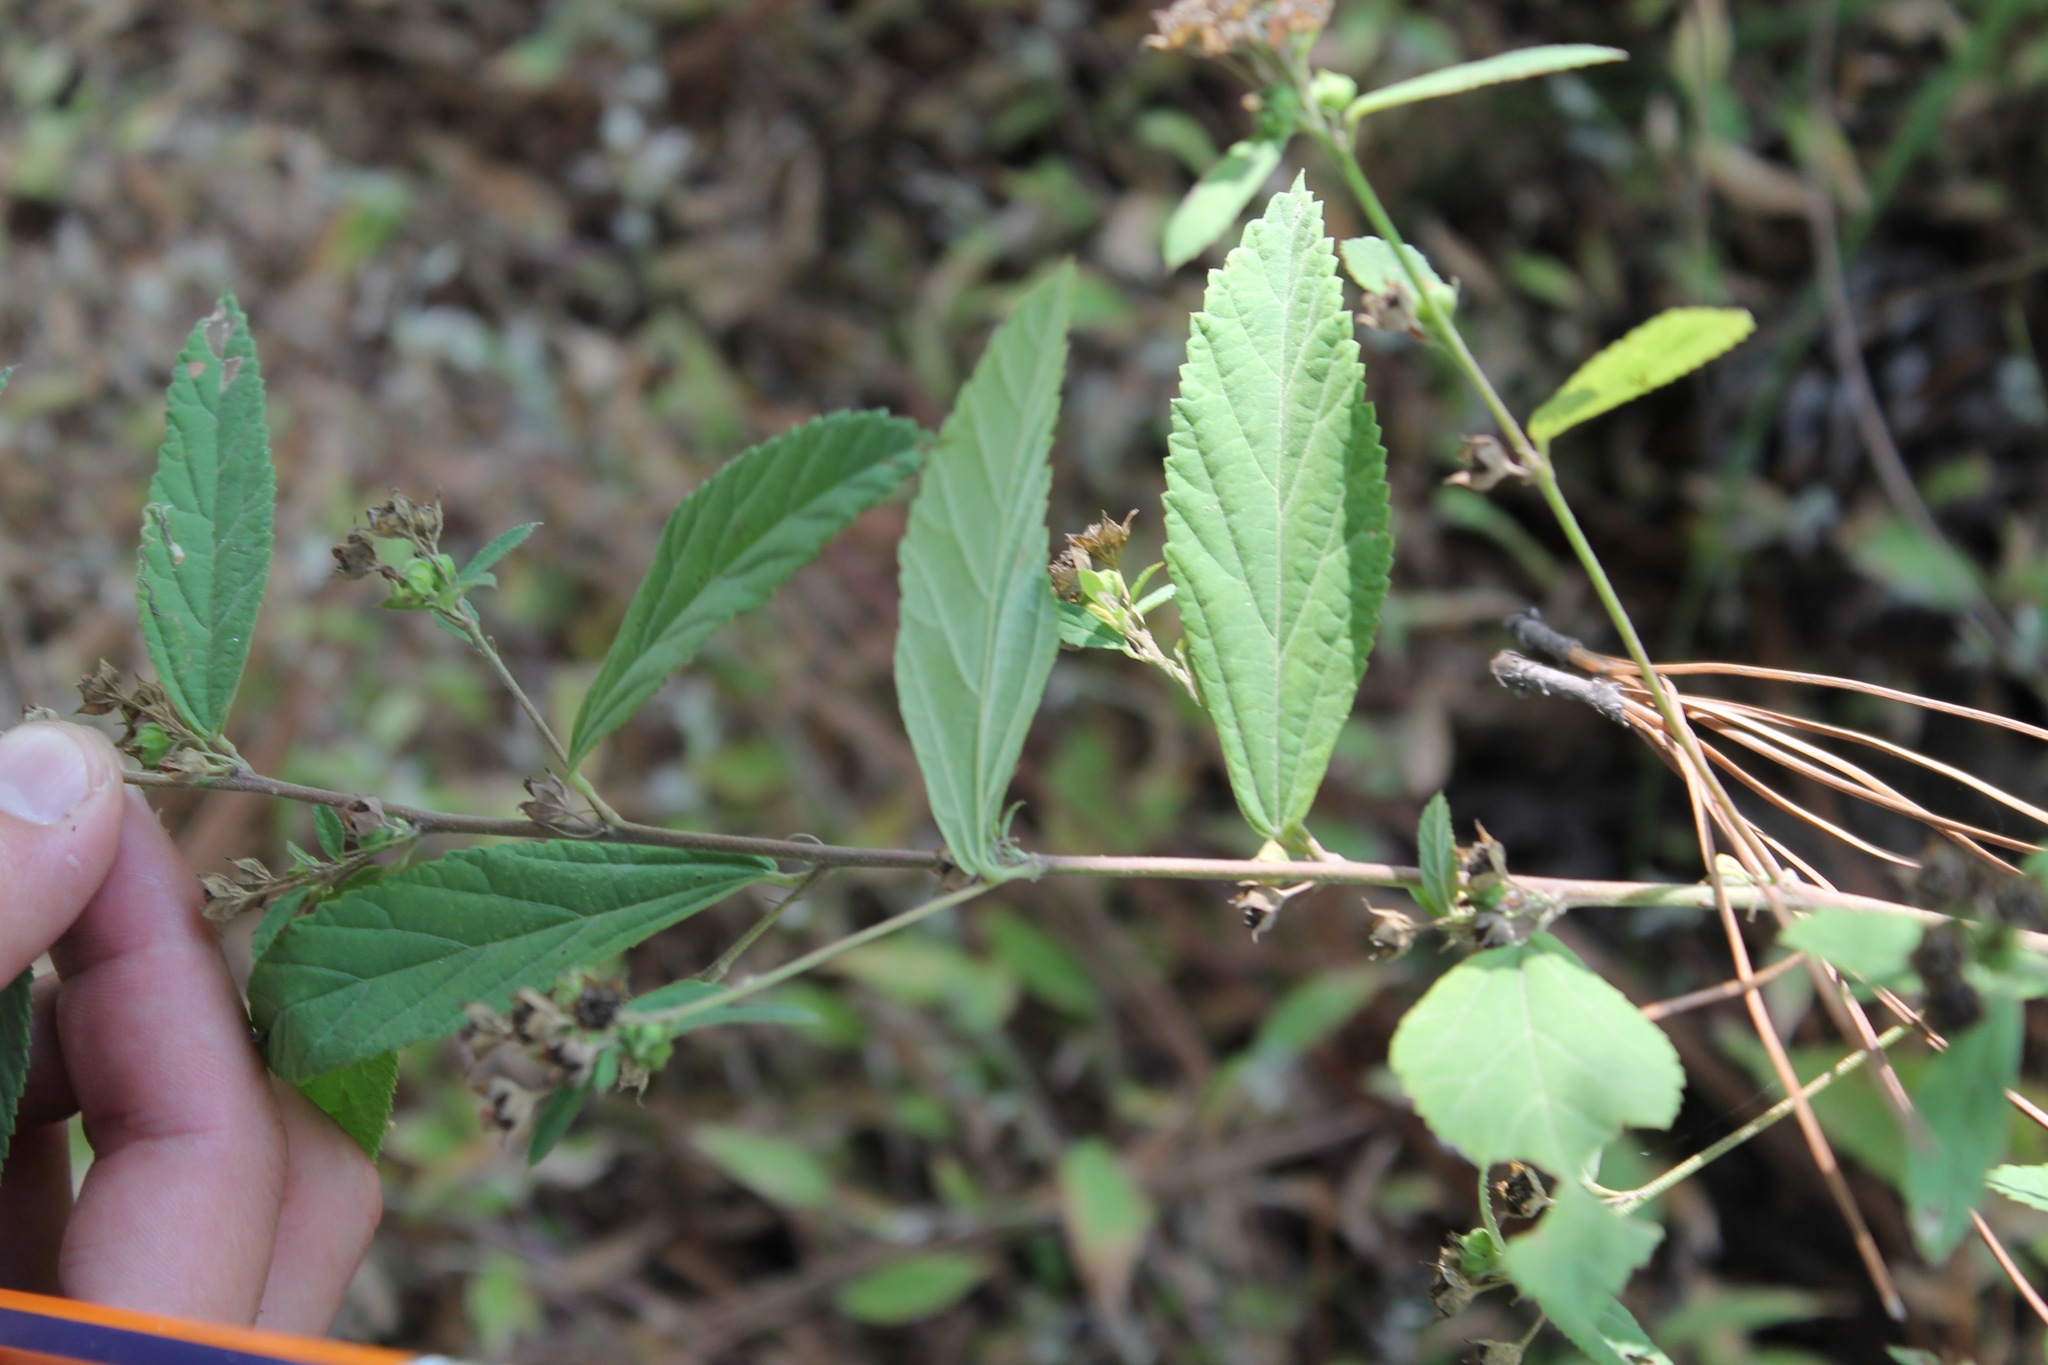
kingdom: Plantae
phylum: Tracheophyta
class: Magnoliopsida
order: Malvales
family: Malvaceae
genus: Sida
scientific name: Sida rhombifolia
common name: Queensland-hemp
